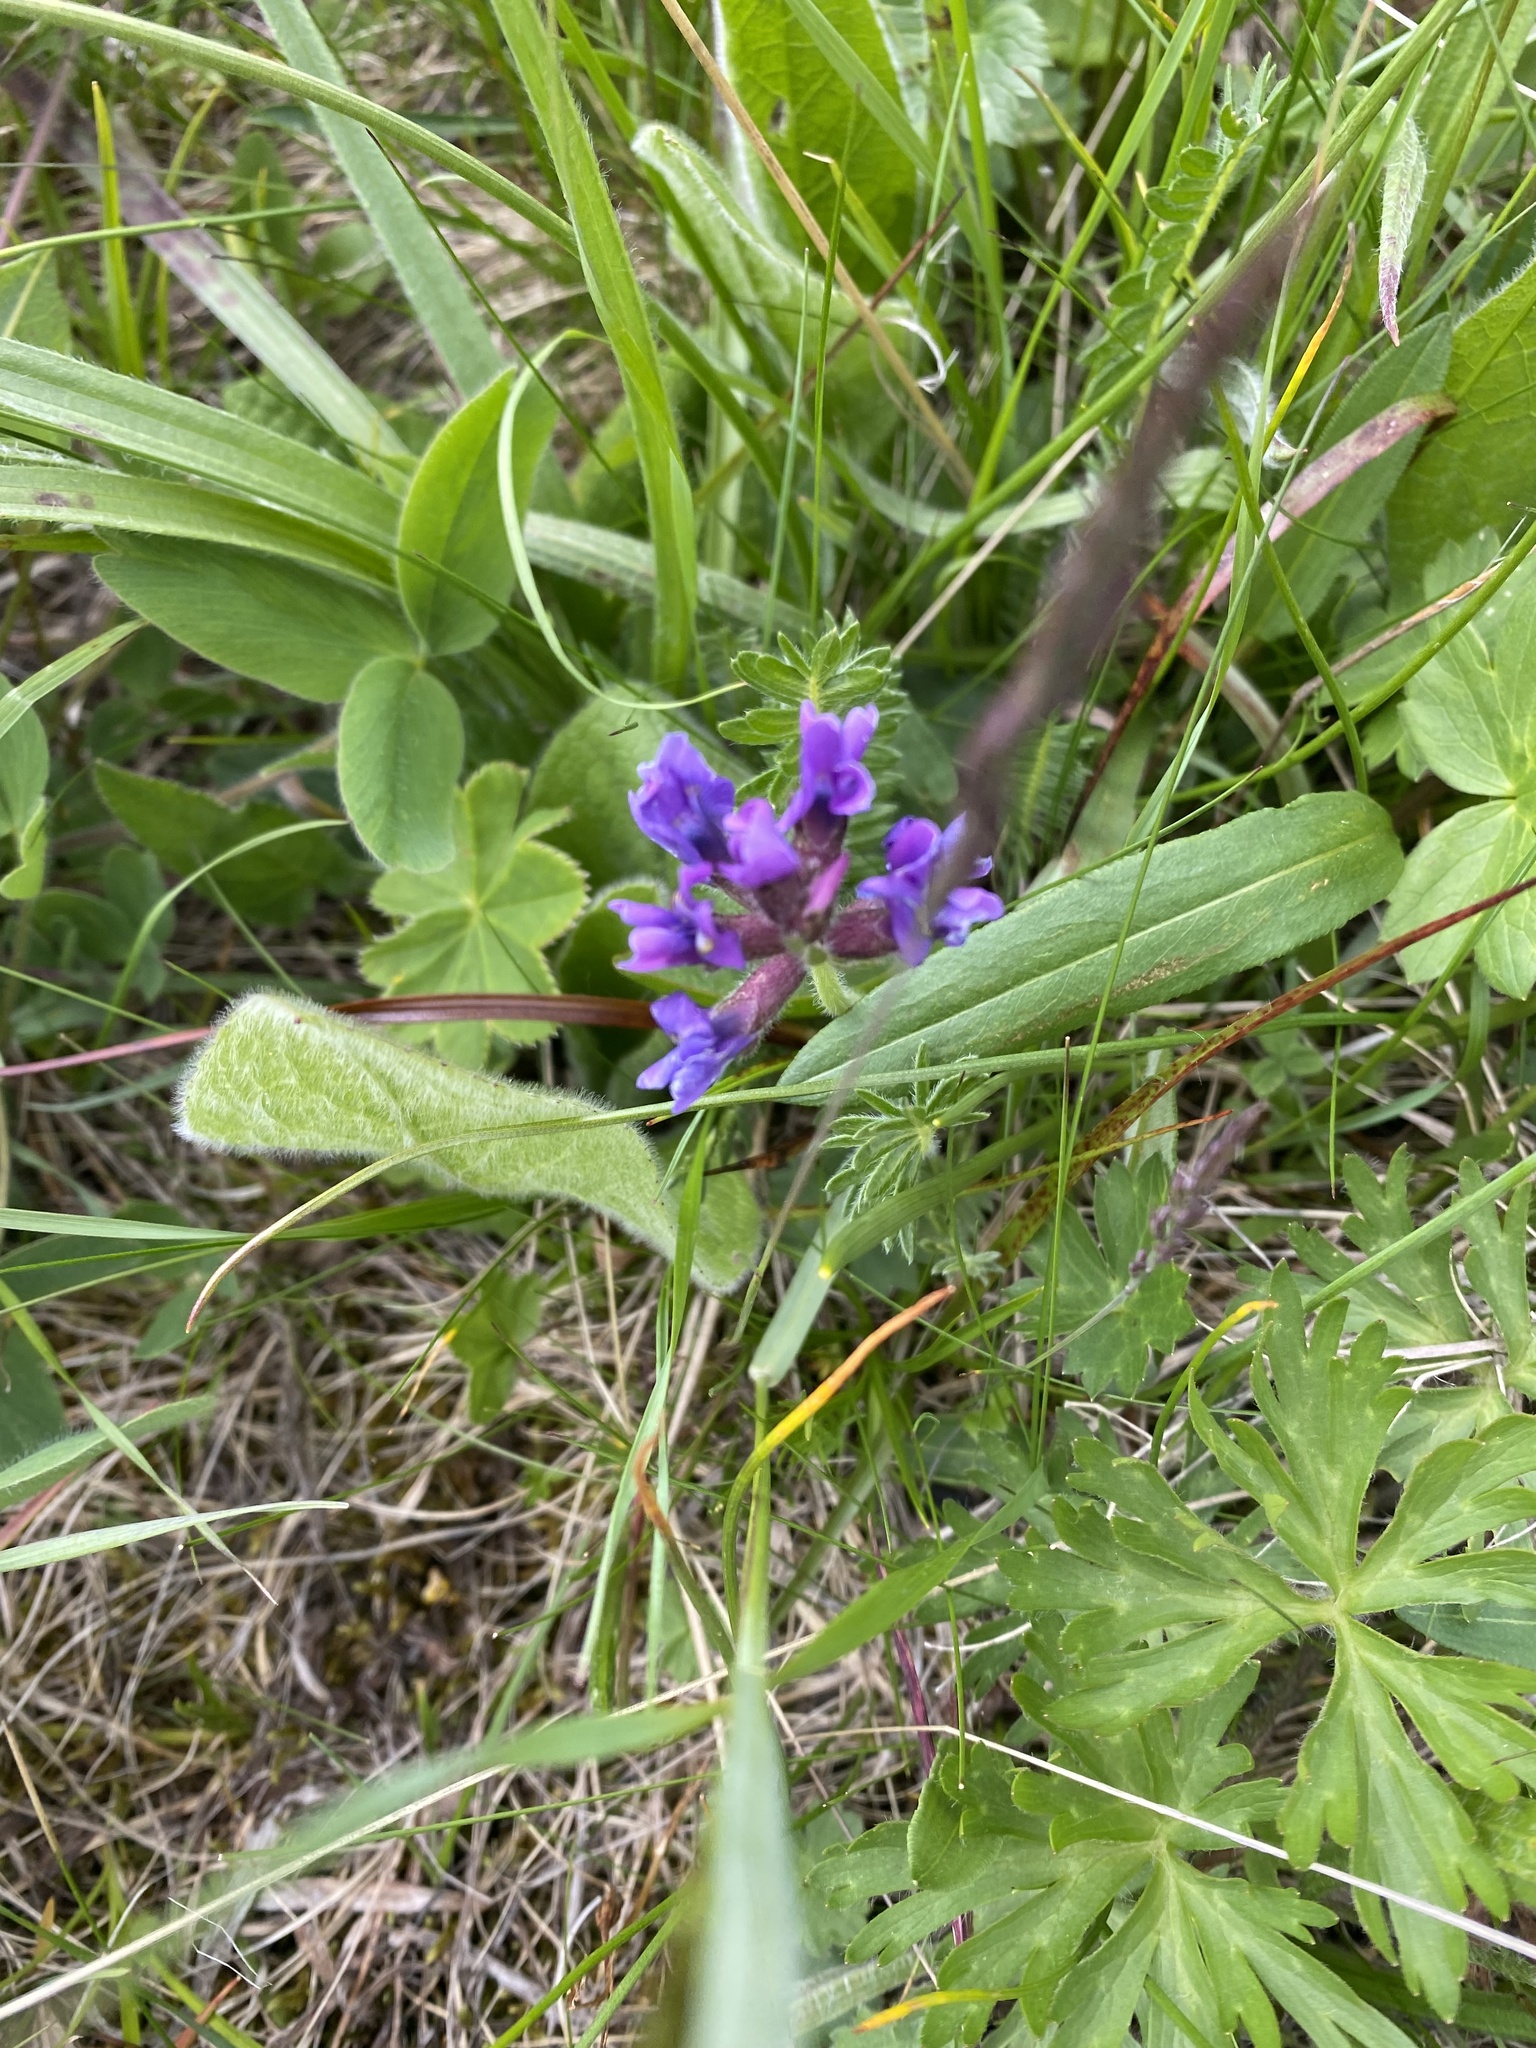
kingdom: Plantae
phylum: Tracheophyta
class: Magnoliopsida
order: Fabales
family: Fabaceae
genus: Oxytropis
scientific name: Oxytropis lazica
